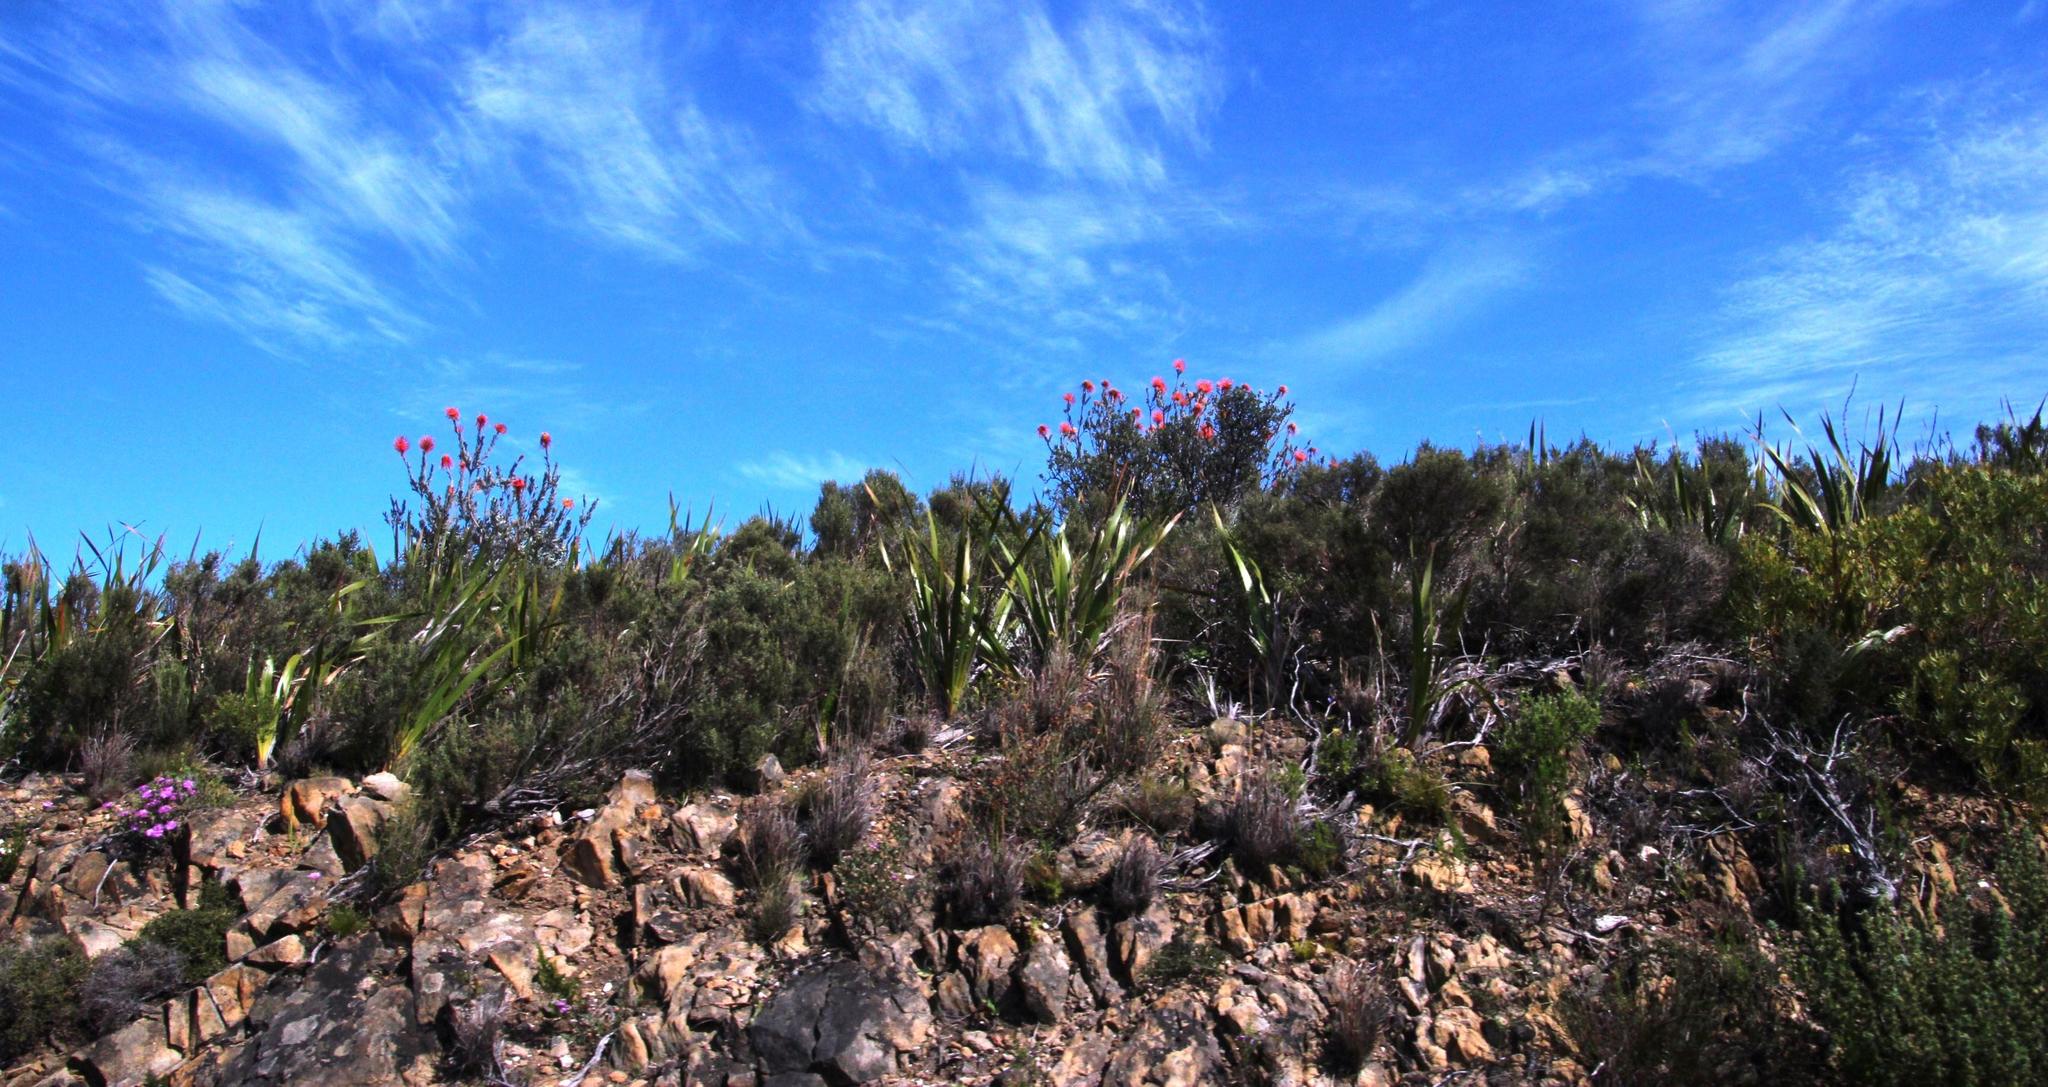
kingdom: Plantae
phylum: Tracheophyta
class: Magnoliopsida
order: Proteales
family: Proteaceae
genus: Leucospermum
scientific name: Leucospermum reflexum
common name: Rocket pincushion
